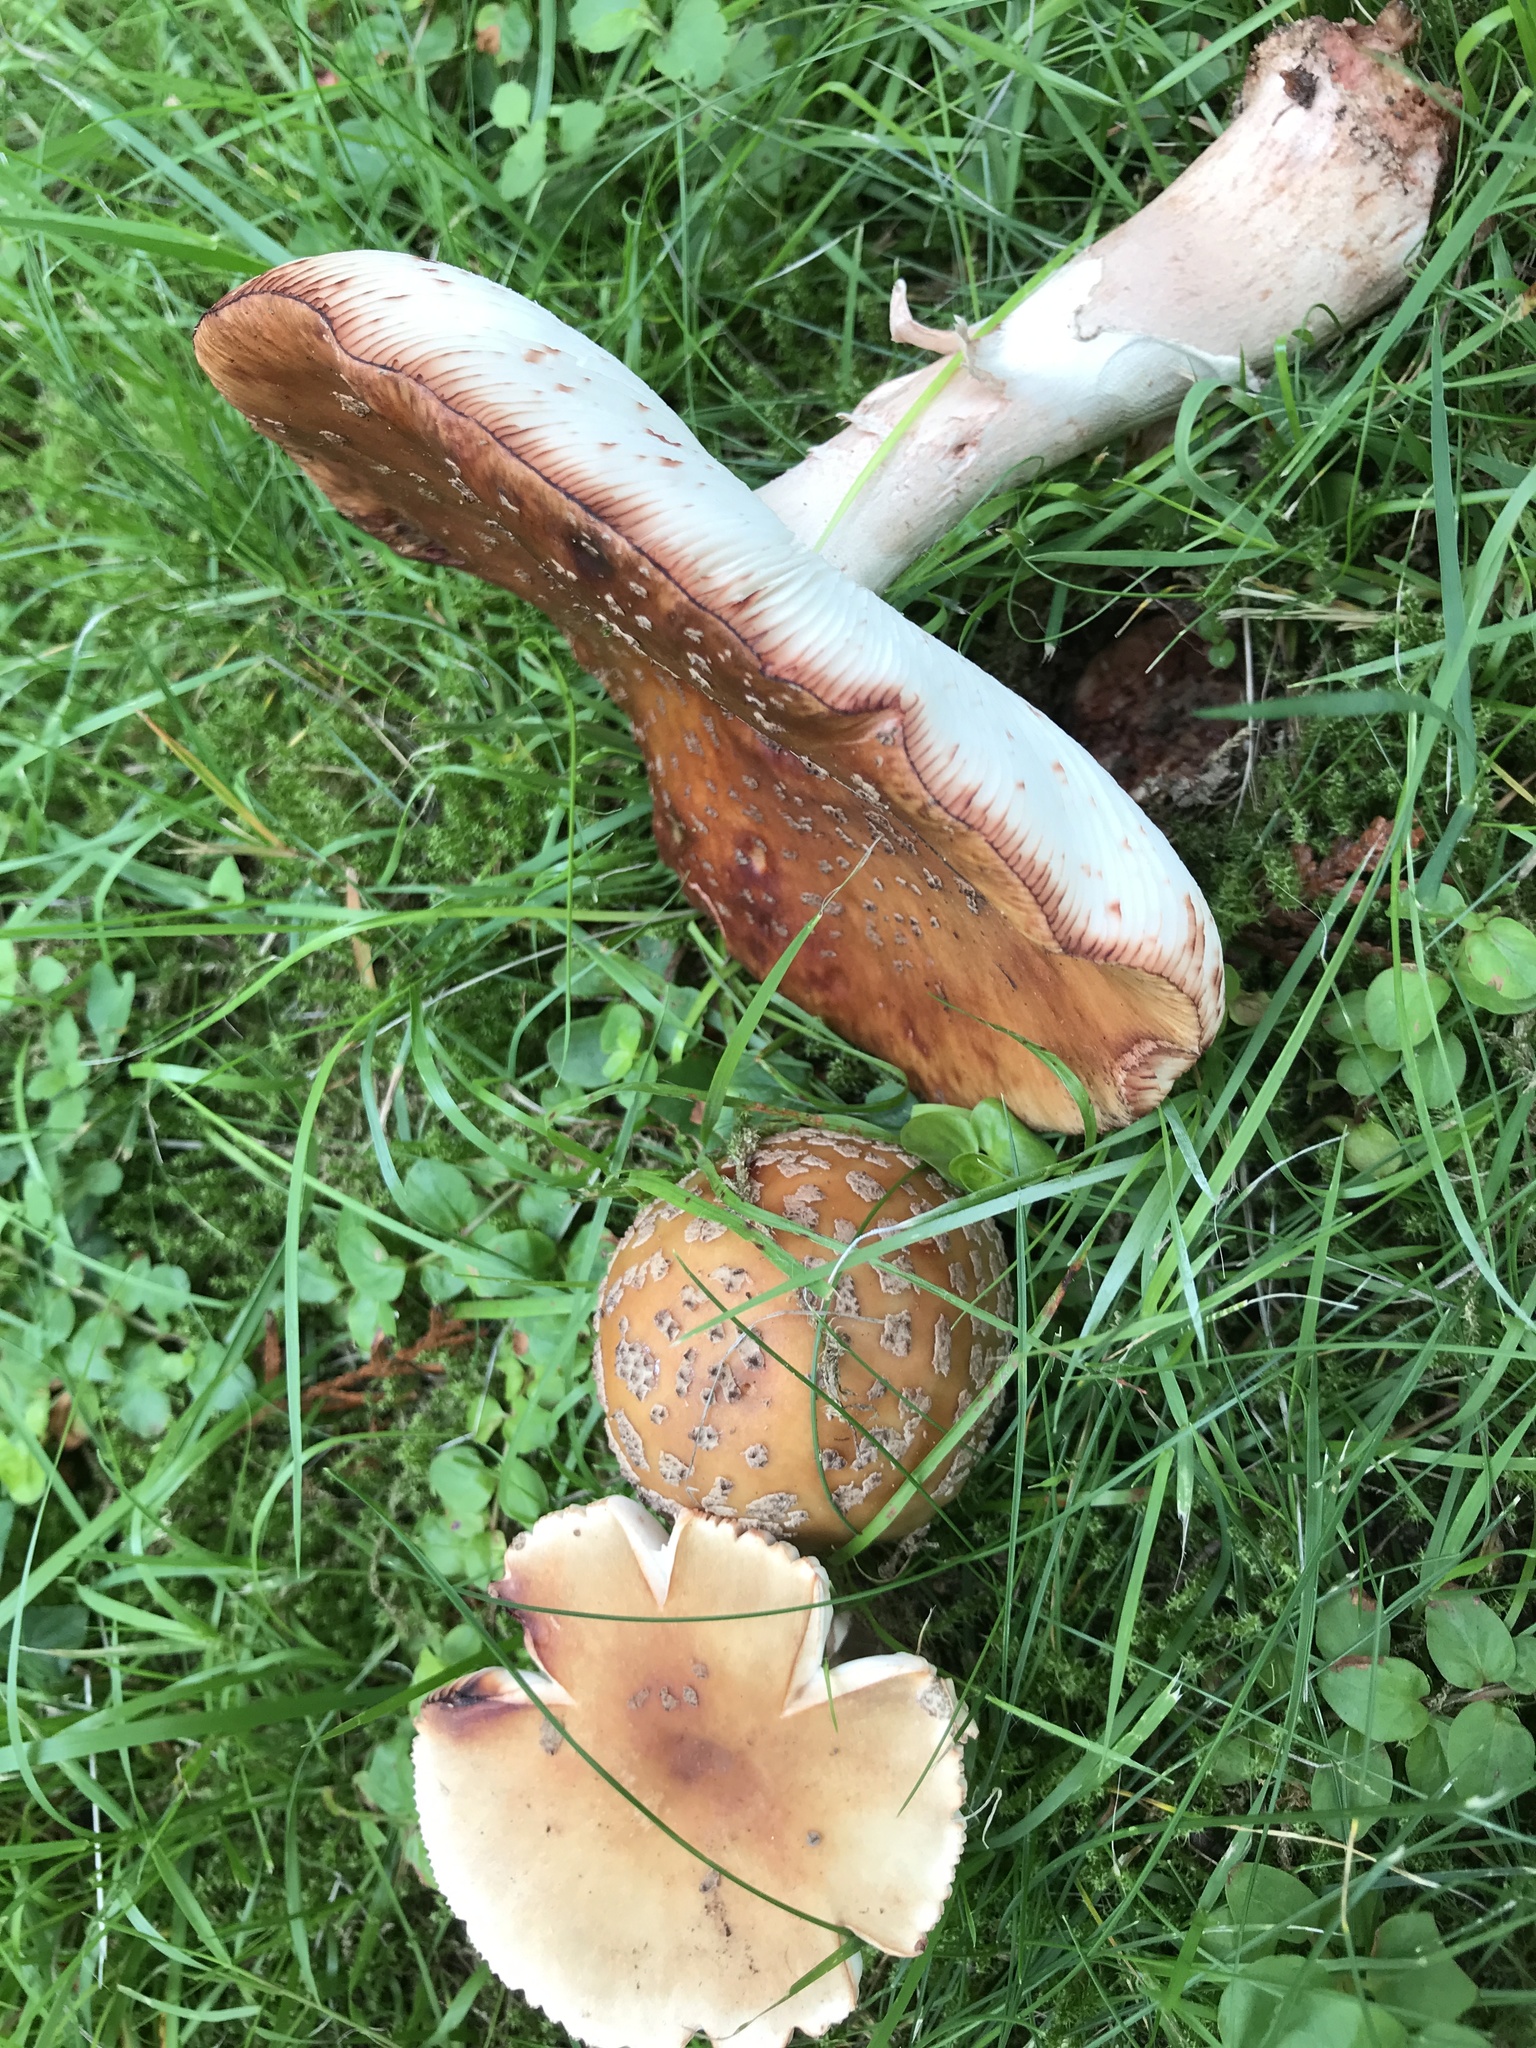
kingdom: Fungi
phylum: Basidiomycota
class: Agaricomycetes
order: Agaricales
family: Amanitaceae
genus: Amanita
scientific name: Amanita rubescens
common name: Blusher
